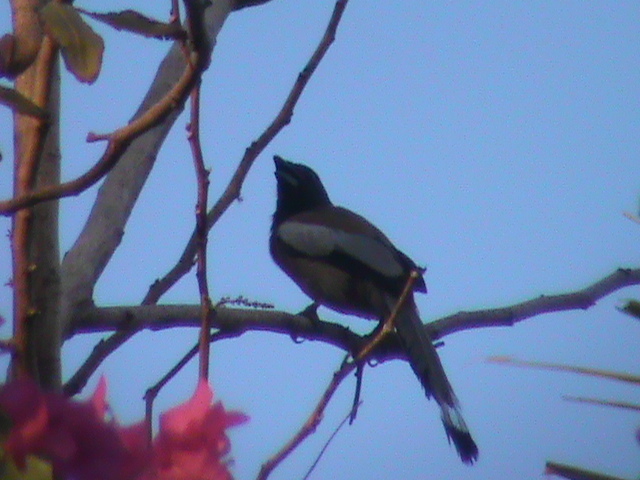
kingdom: Animalia
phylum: Chordata
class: Aves
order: Passeriformes
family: Corvidae
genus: Dendrocitta
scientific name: Dendrocitta vagabunda
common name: Rufous treepie
